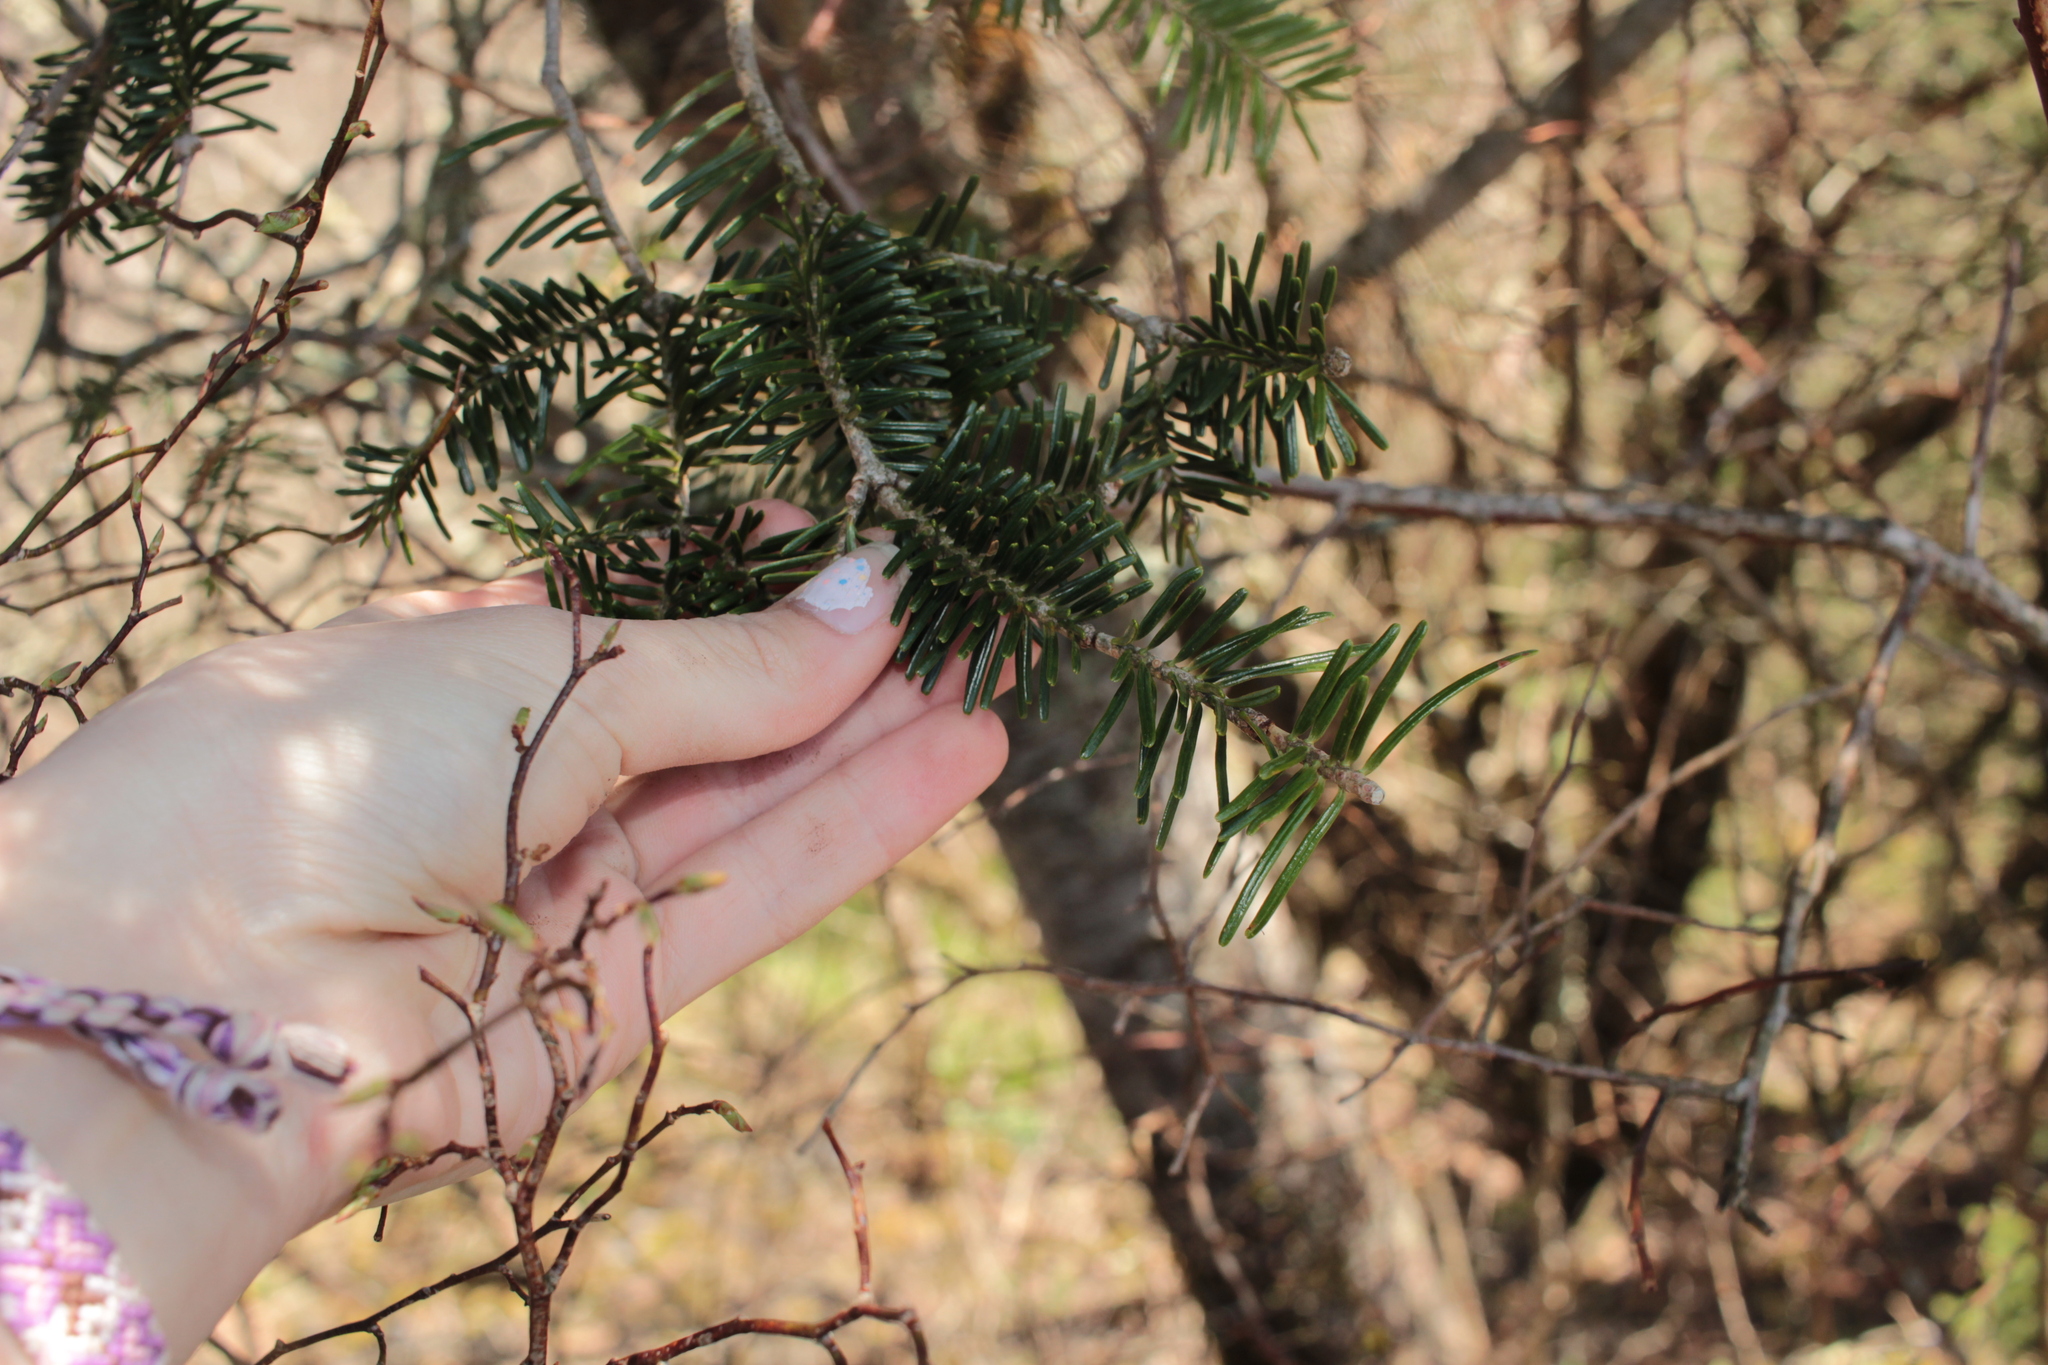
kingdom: Plantae
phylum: Tracheophyta
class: Pinopsida
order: Pinales
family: Pinaceae
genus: Abies
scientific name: Abies fraseri
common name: Fraser fir
